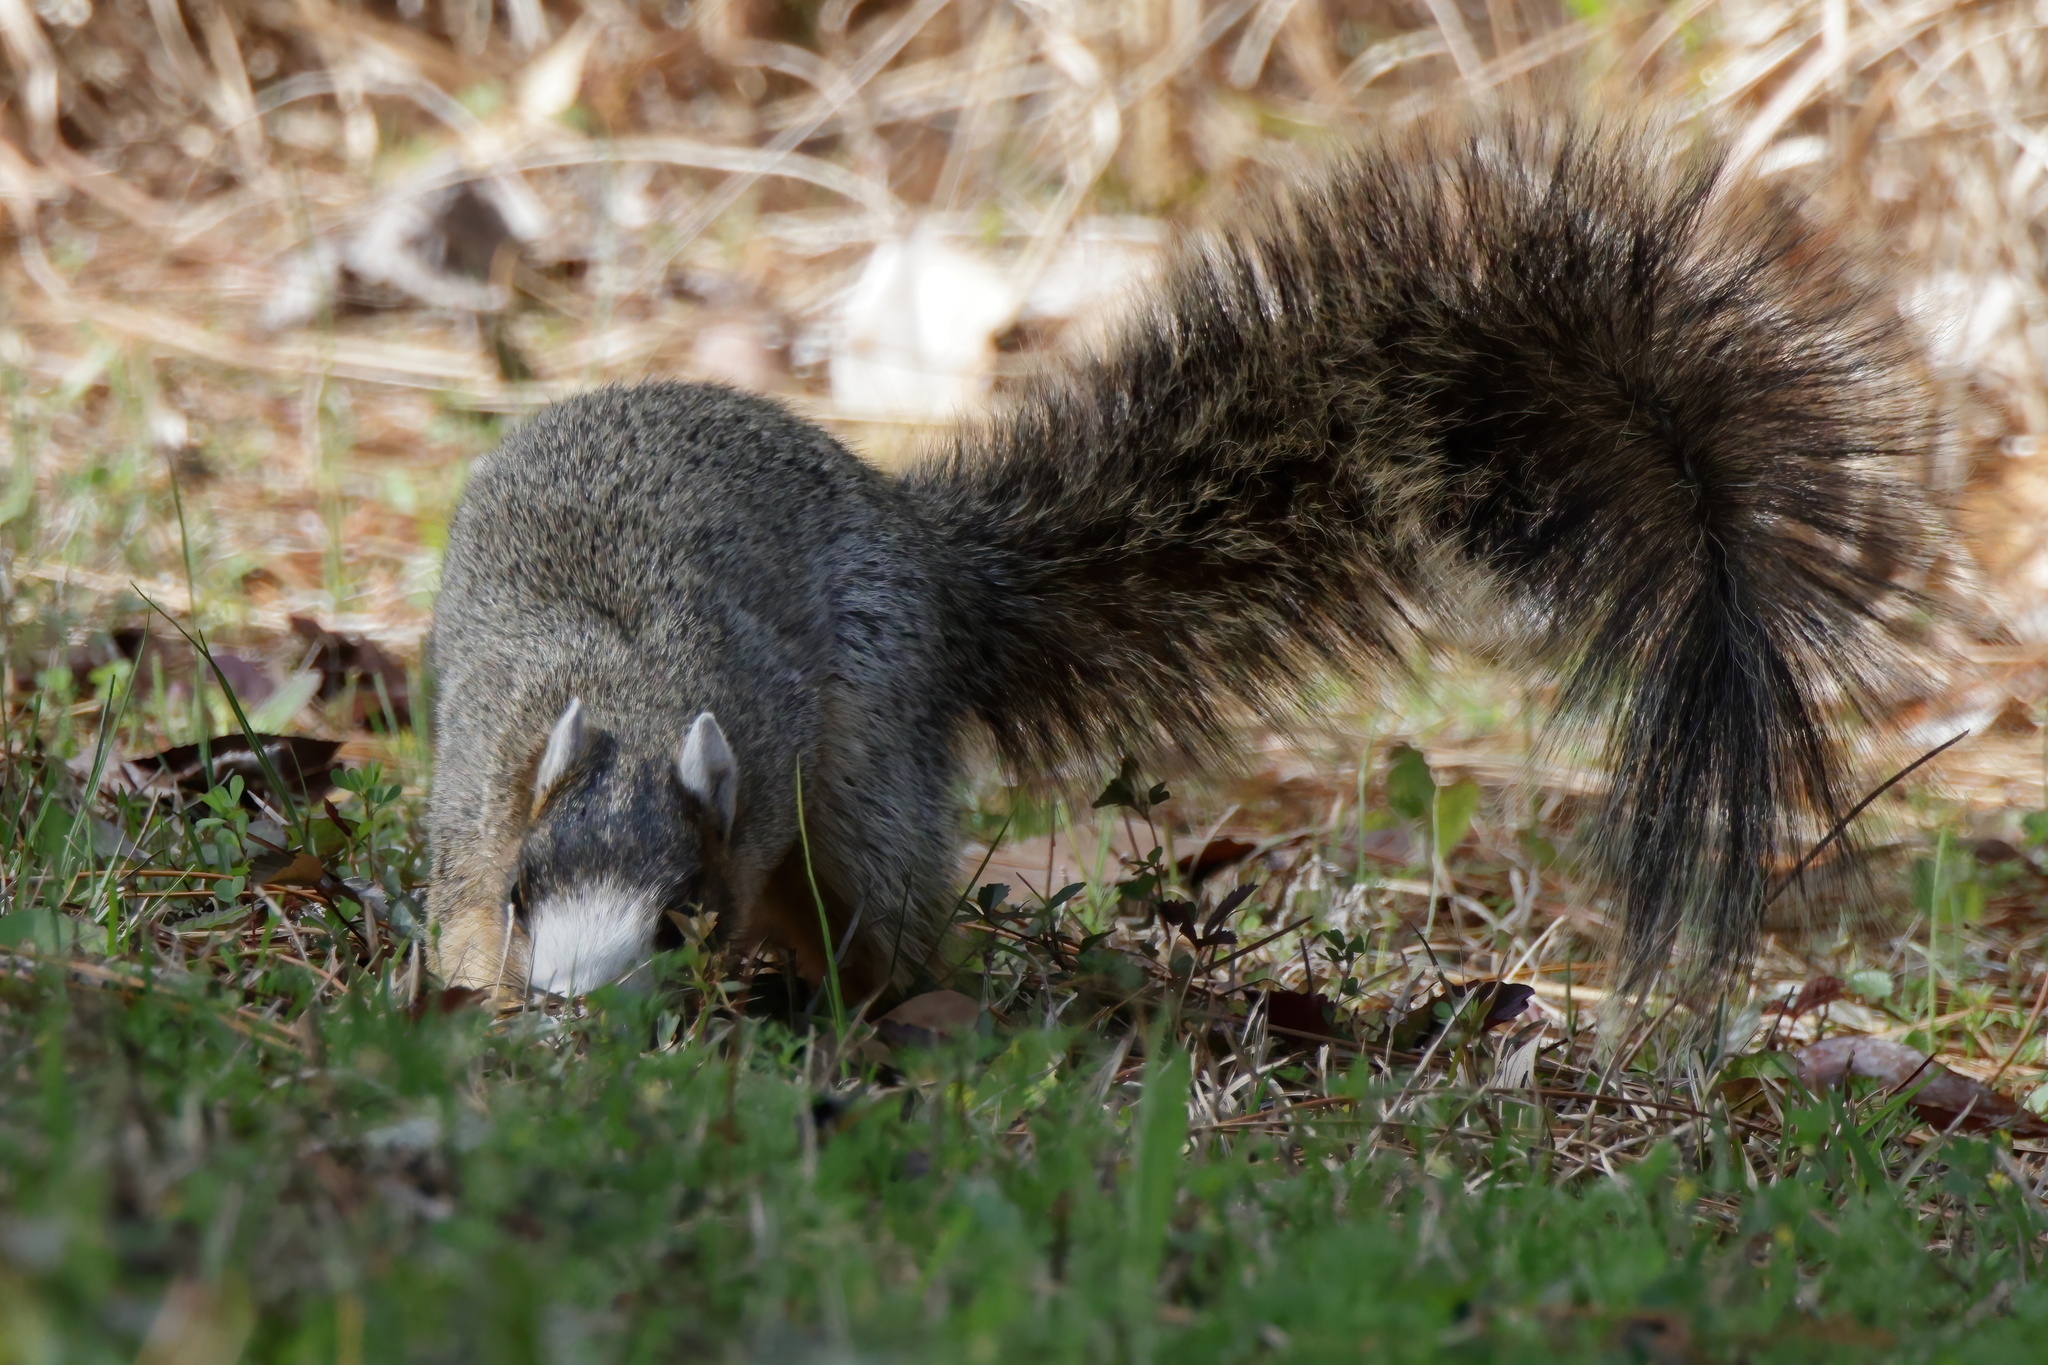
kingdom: Animalia
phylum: Chordata
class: Mammalia
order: Rodentia
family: Sciuridae
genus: Sciurus
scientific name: Sciurus niger
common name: Fox squirrel
